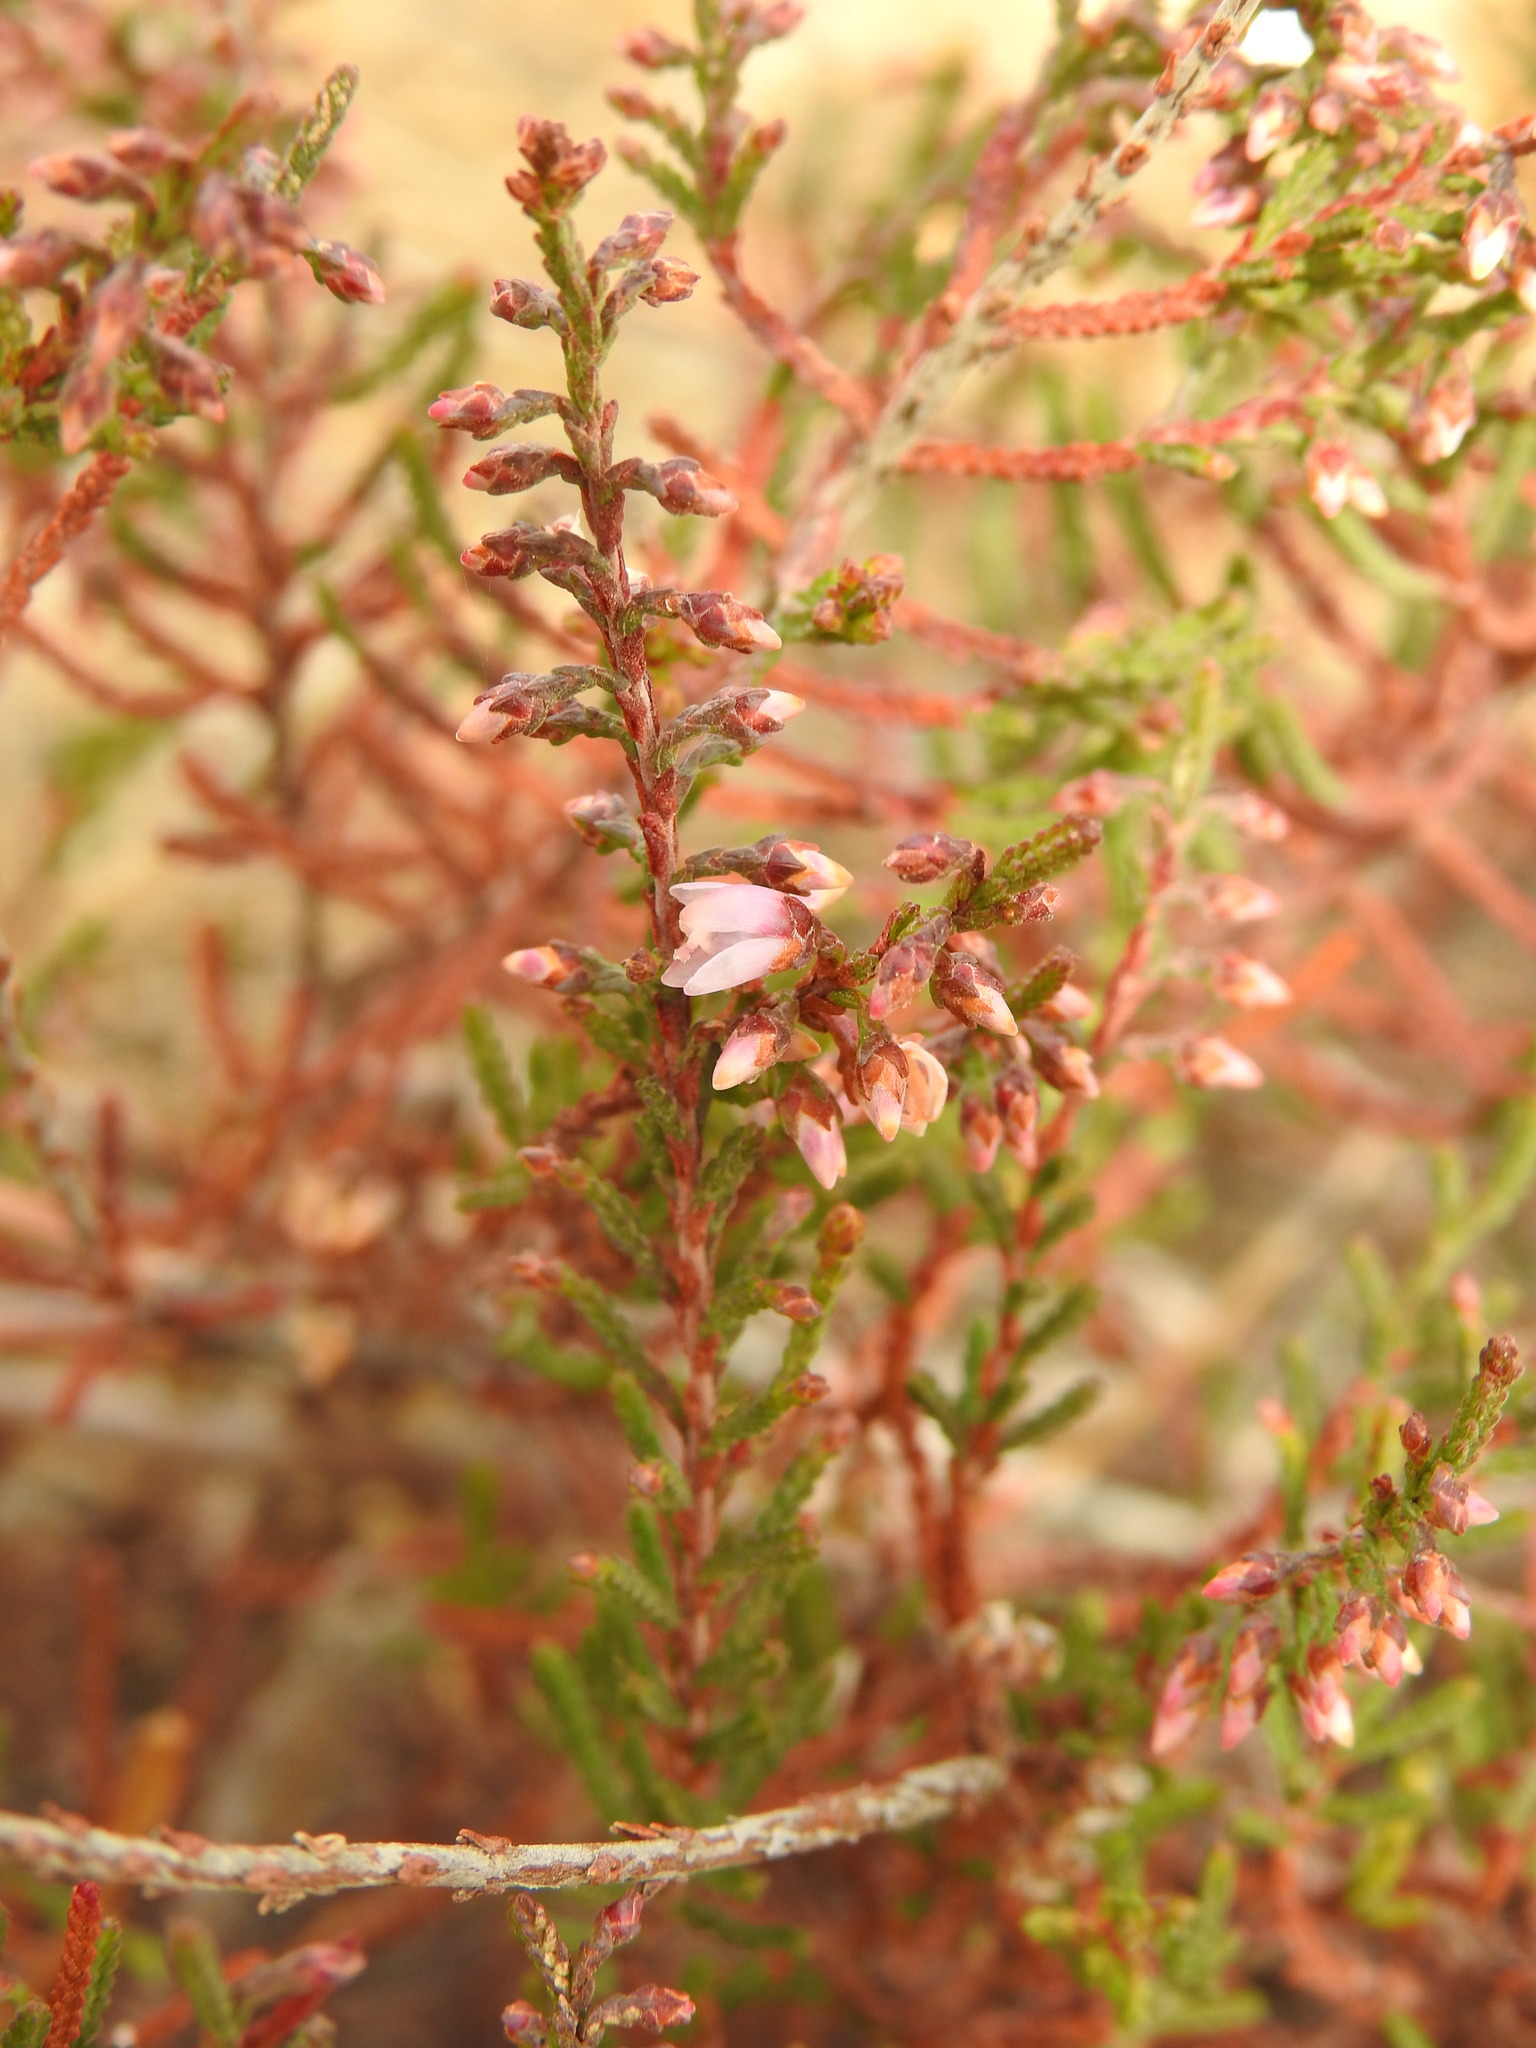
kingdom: Plantae
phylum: Tracheophyta
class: Magnoliopsida
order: Ericales
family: Ericaceae
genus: Calluna
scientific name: Calluna vulgaris
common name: Heather
